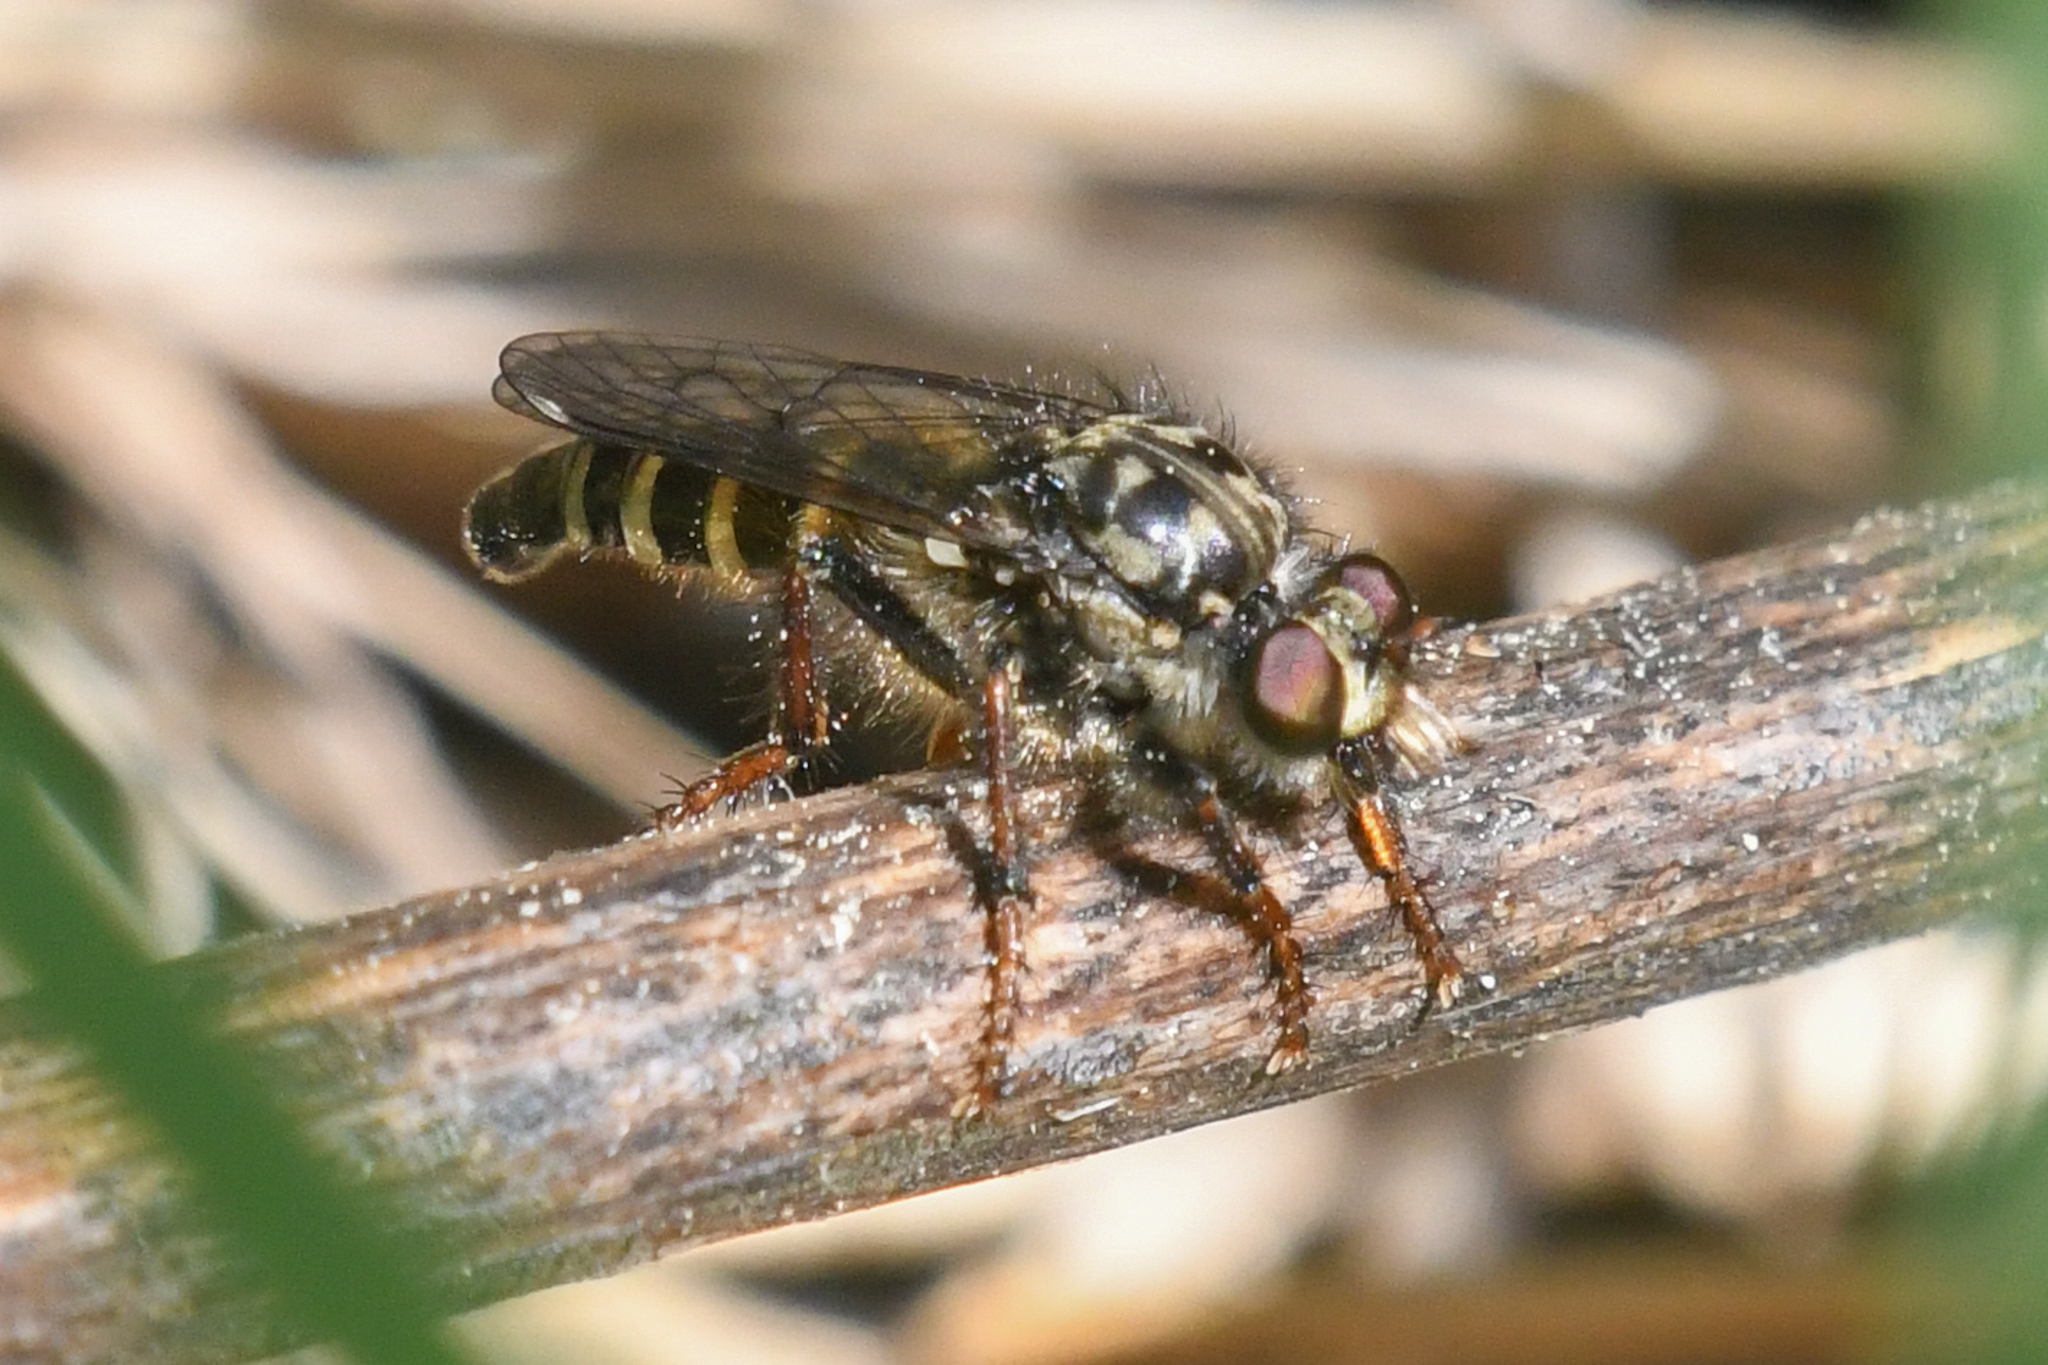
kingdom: Animalia
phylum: Arthropoda
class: Insecta
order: Diptera
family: Asilidae
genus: Cyrtopogon
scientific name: Cyrtopogon glarealis
